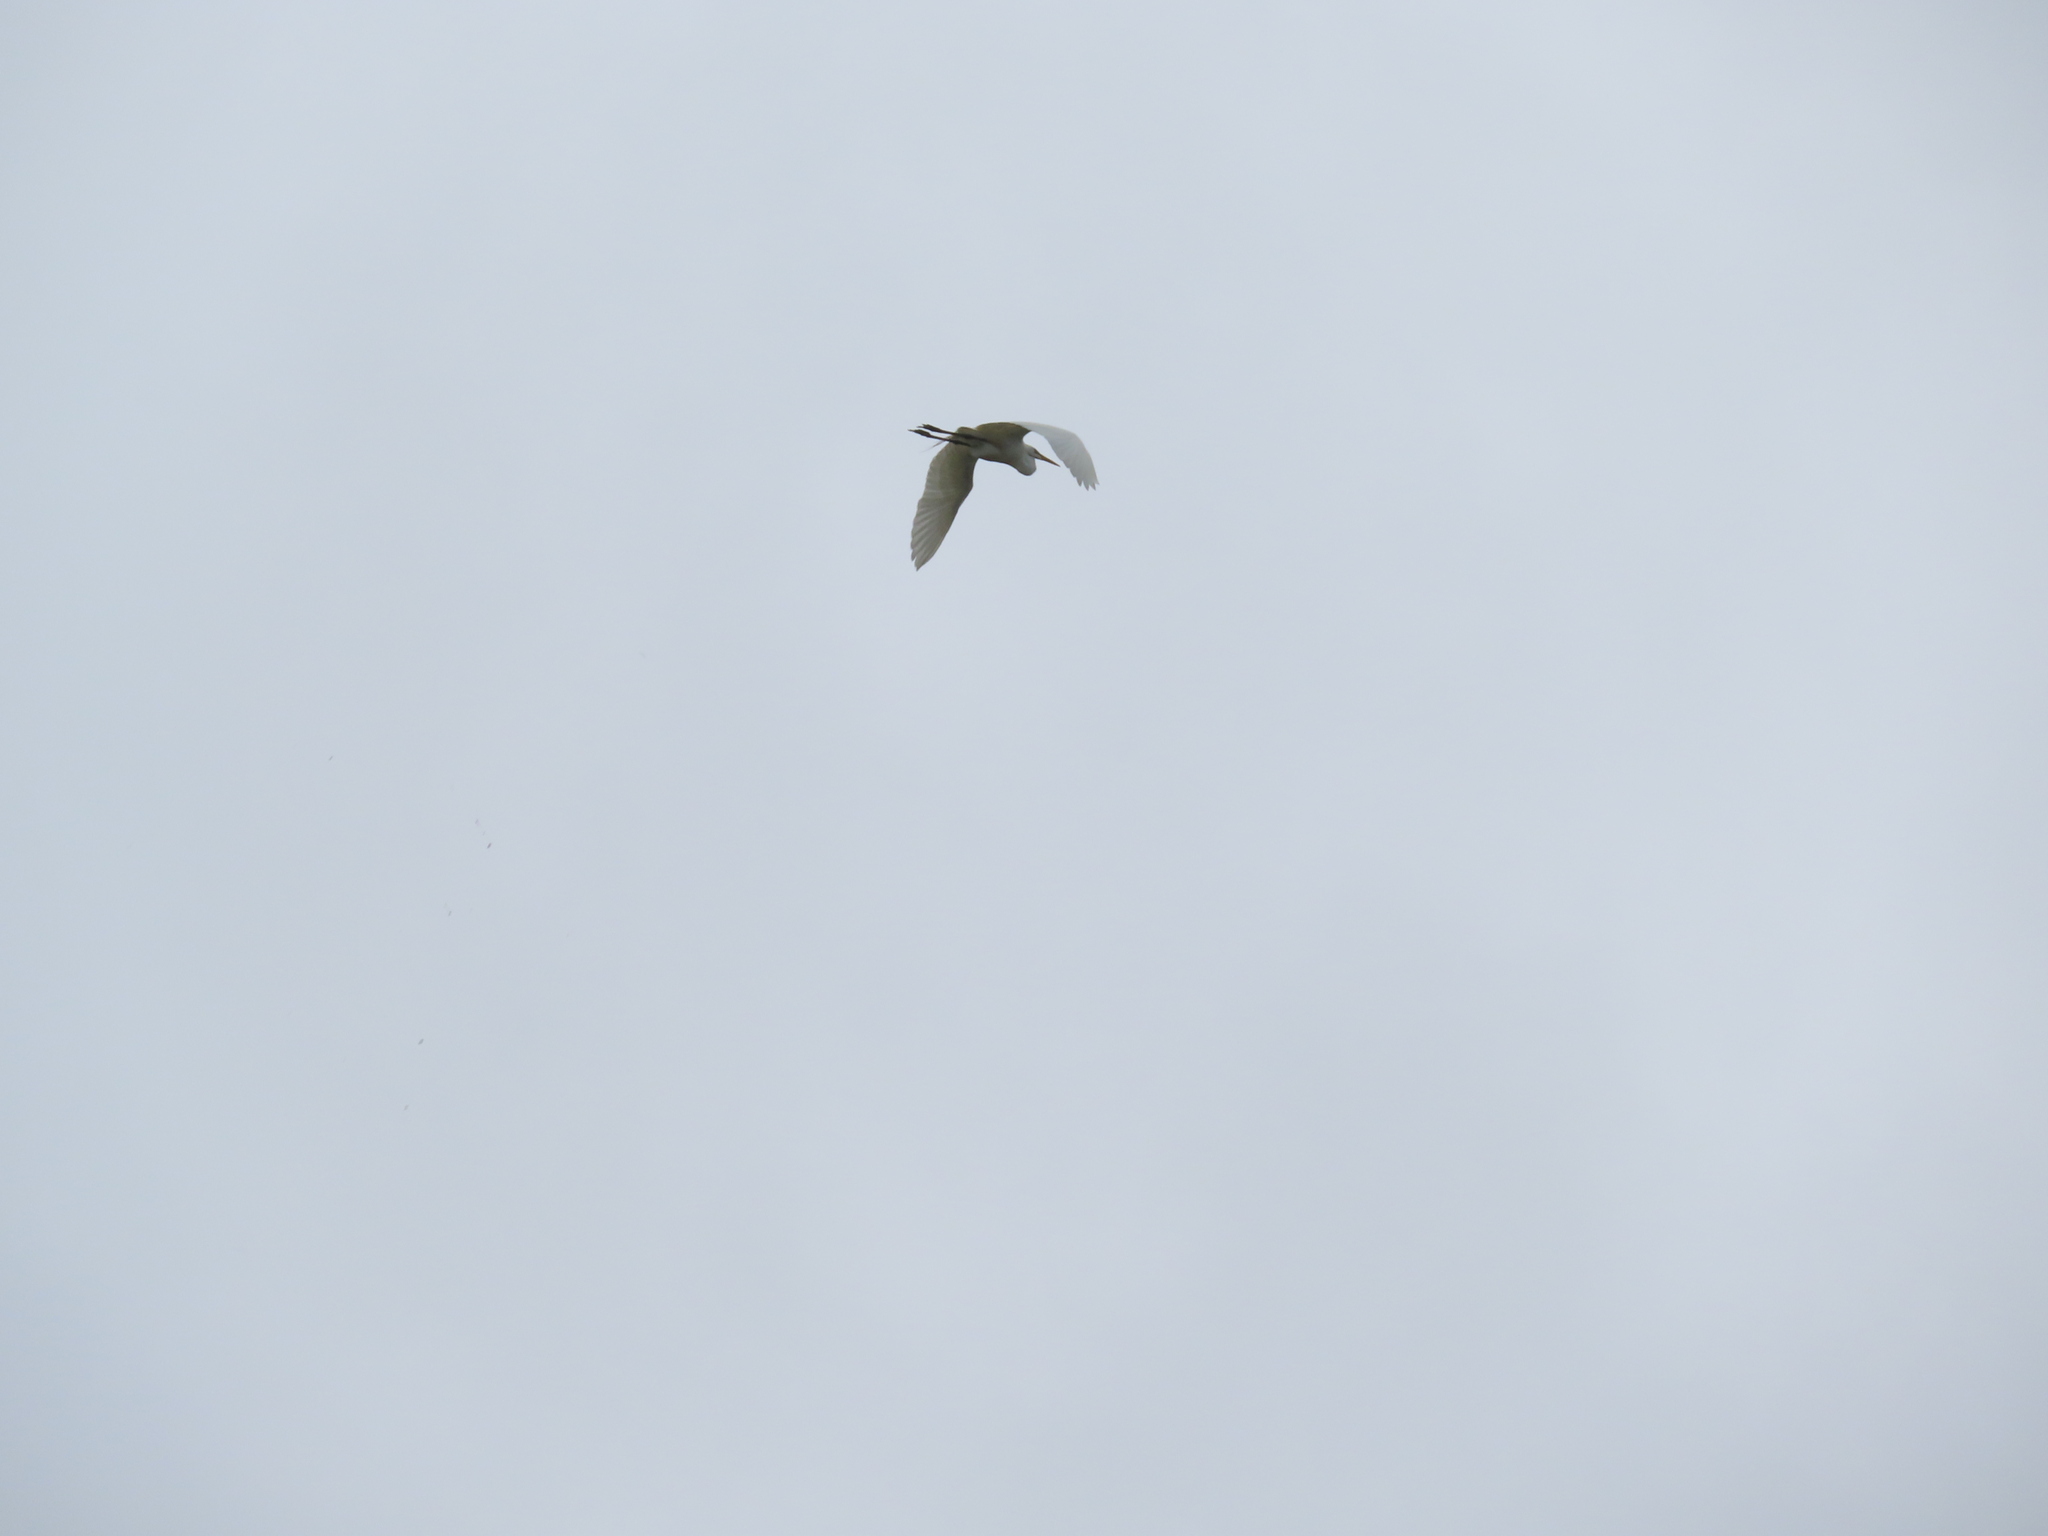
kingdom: Animalia
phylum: Chordata
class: Aves
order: Pelecaniformes
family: Ardeidae
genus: Ardea
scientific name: Ardea alba
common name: Great egret
